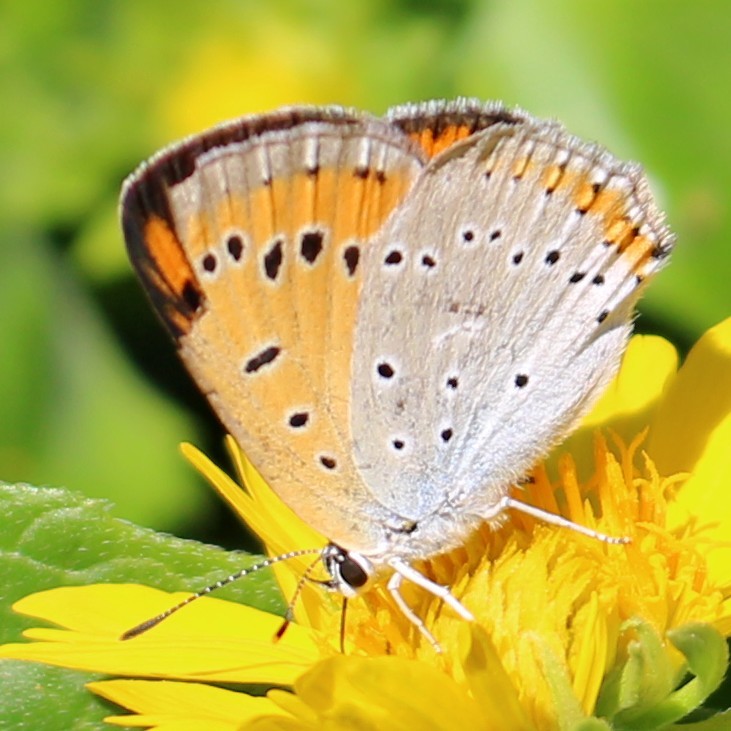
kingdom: Animalia
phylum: Arthropoda
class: Insecta
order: Lepidoptera
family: Lycaenidae
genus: Lycaena
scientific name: Lycaena dispar
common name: Large copper
